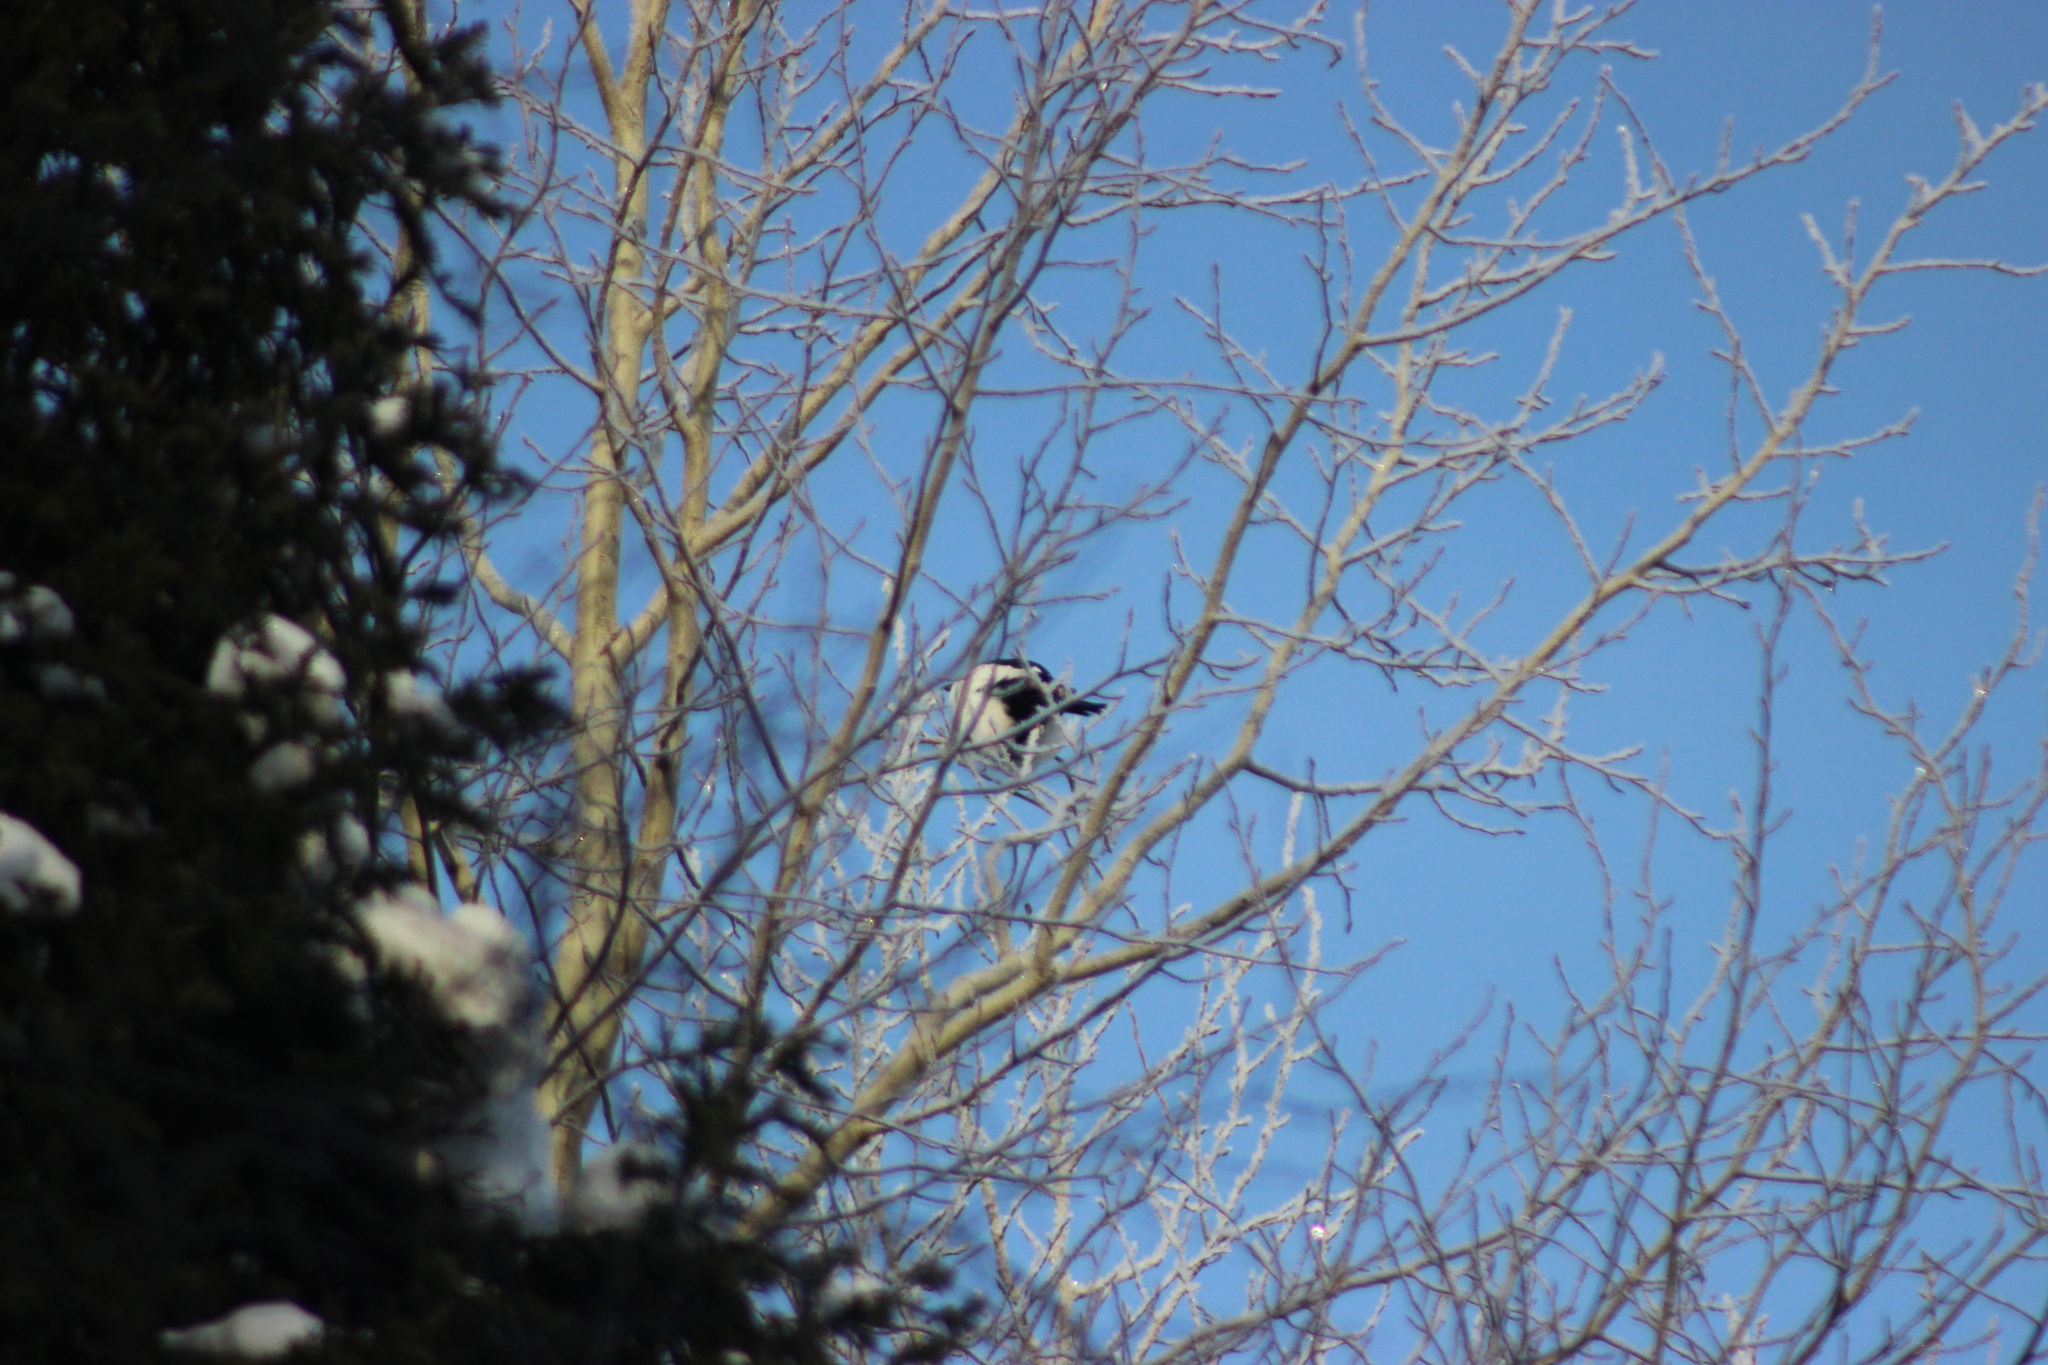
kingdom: Animalia
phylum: Chordata
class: Aves
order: Passeriformes
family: Corvidae
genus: Pica
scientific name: Pica pica
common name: Eurasian magpie
